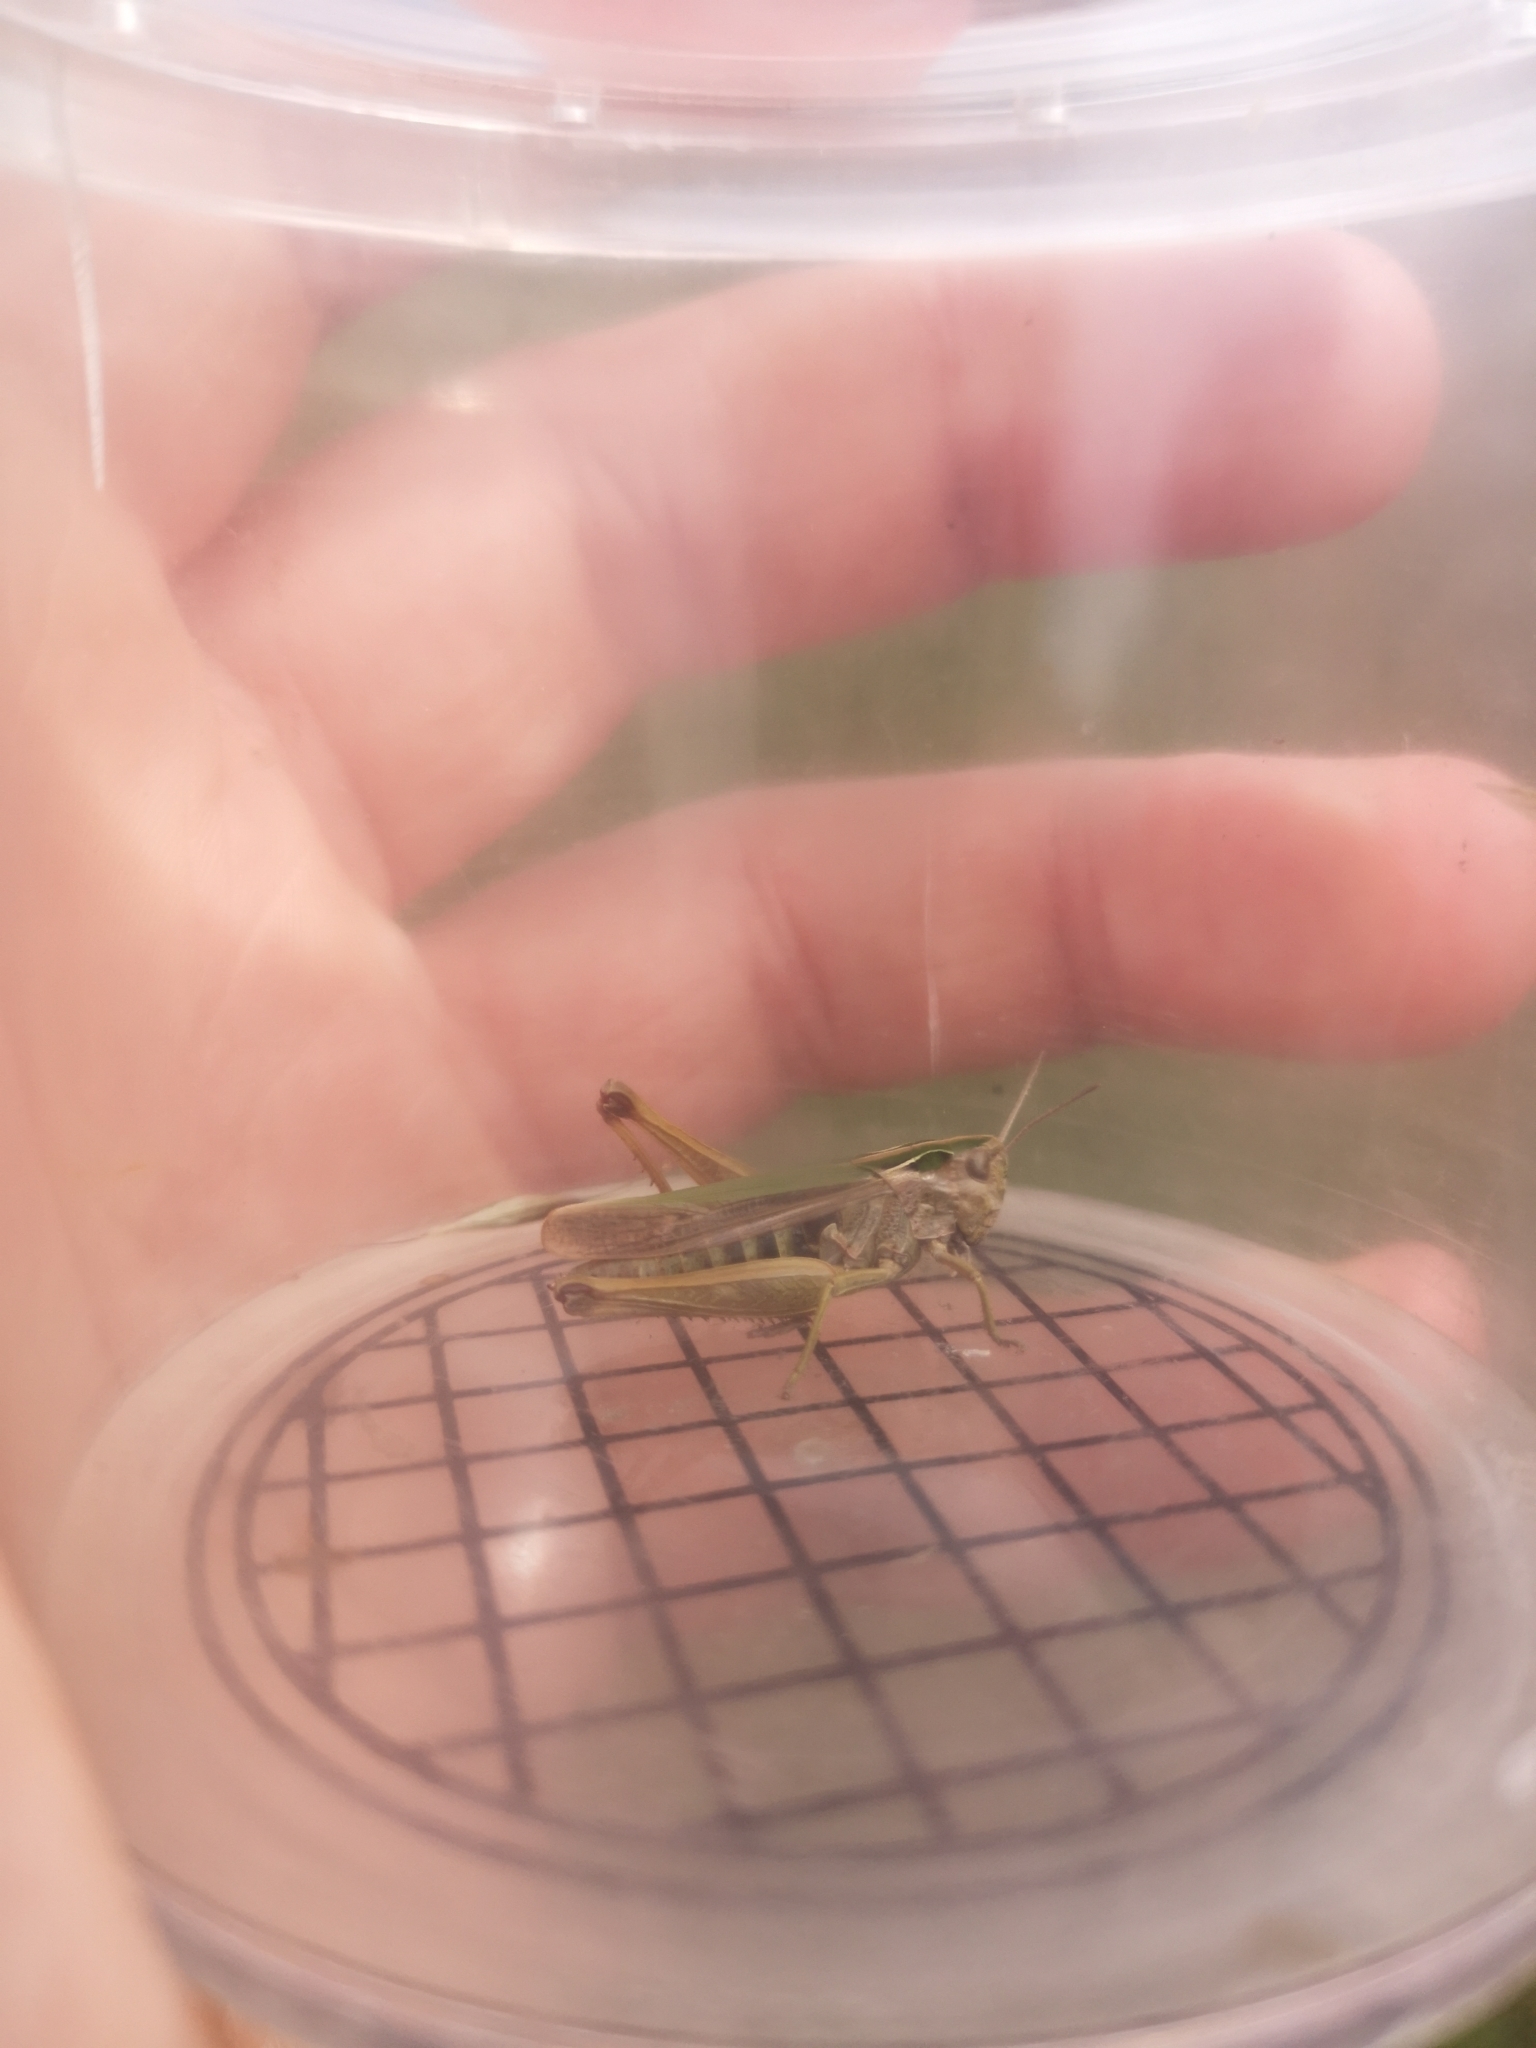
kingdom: Animalia
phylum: Arthropoda
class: Insecta
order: Orthoptera
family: Acrididae
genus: Omocestus
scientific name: Omocestus viridulus
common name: Common green grasshopper
